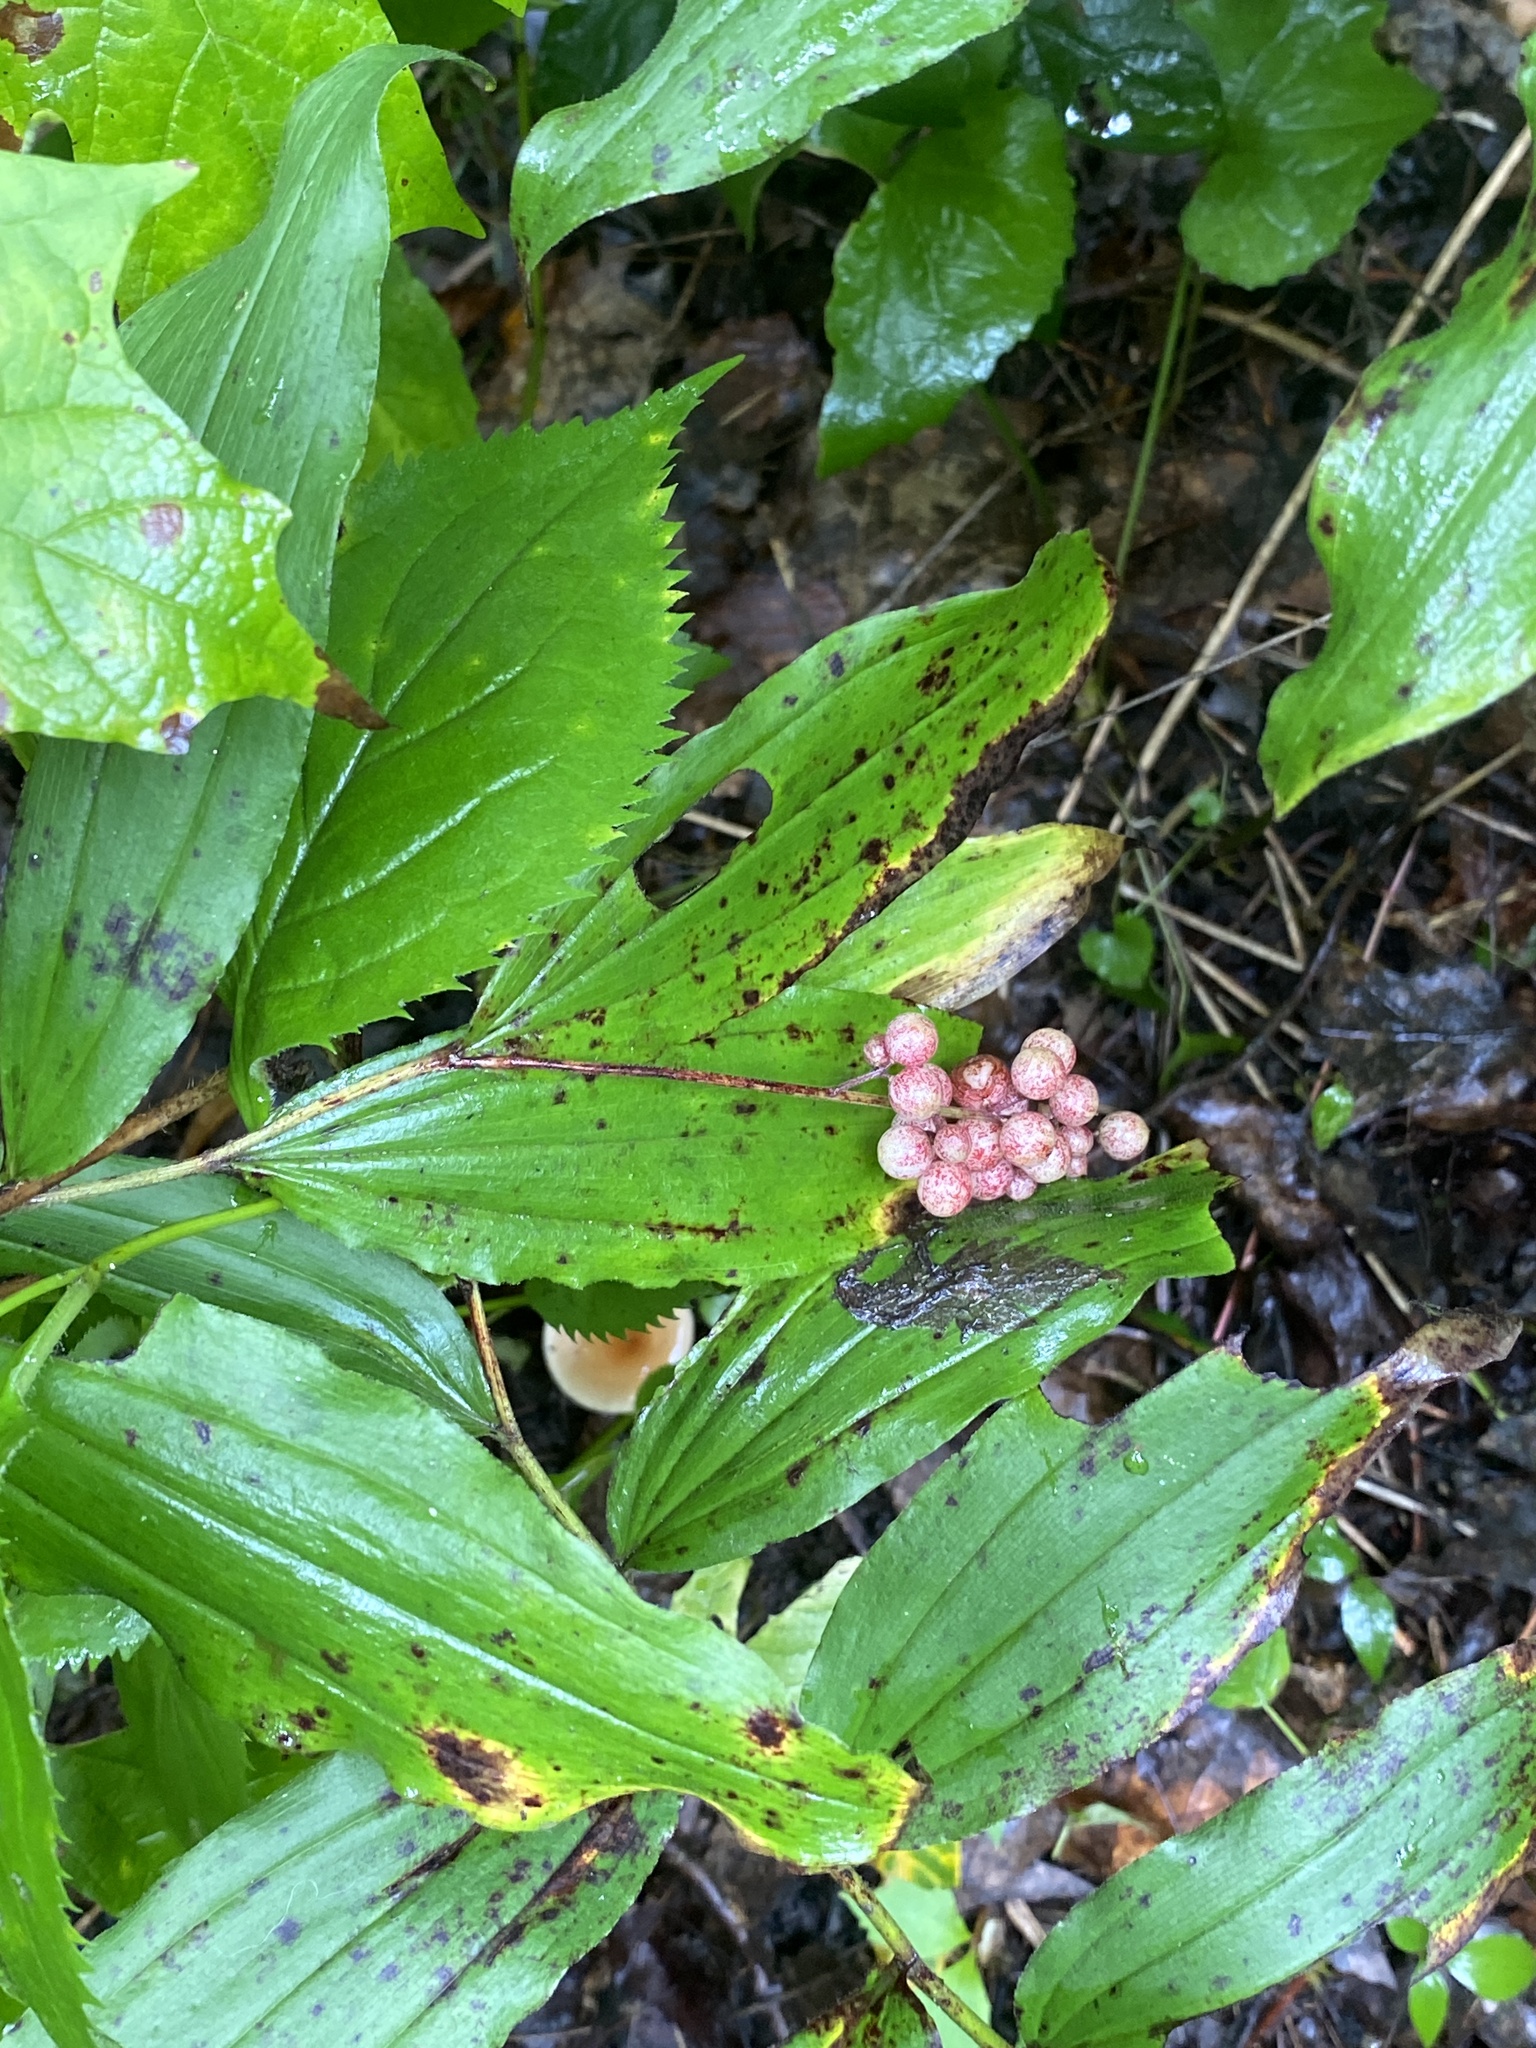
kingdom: Plantae
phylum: Tracheophyta
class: Liliopsida
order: Asparagales
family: Asparagaceae
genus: Maianthemum
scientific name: Maianthemum racemosum
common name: False spikenard
